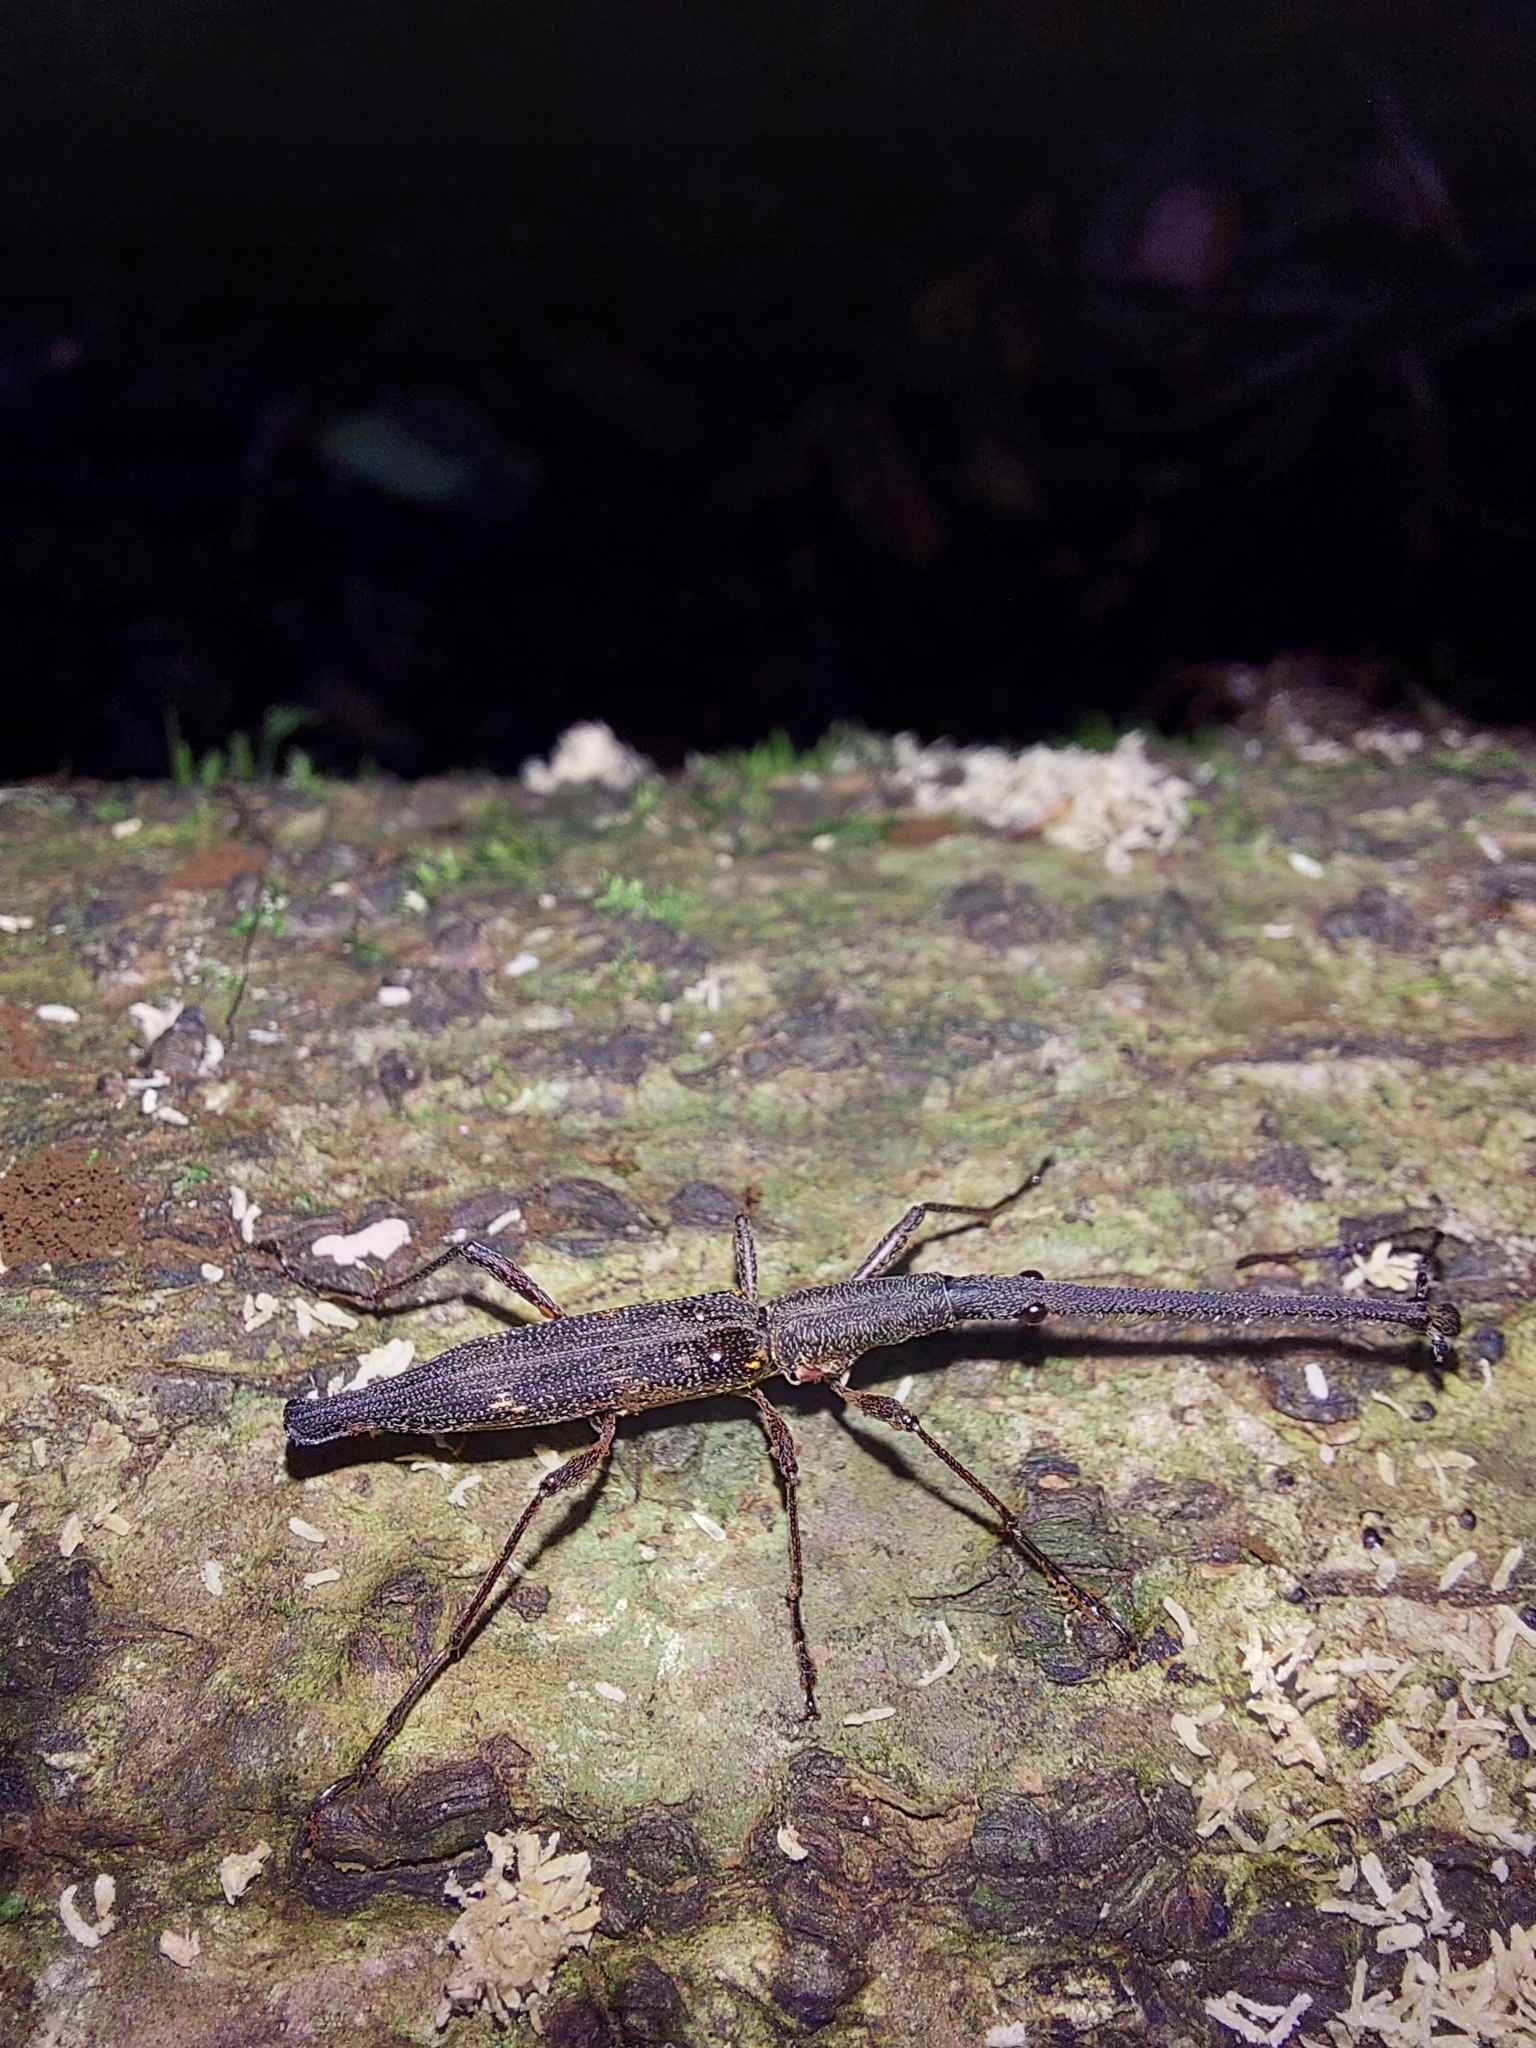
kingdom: Animalia
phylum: Arthropoda
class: Insecta
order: Coleoptera
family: Brentidae
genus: Lasiorhynchus
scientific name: Lasiorhynchus barbicornis
